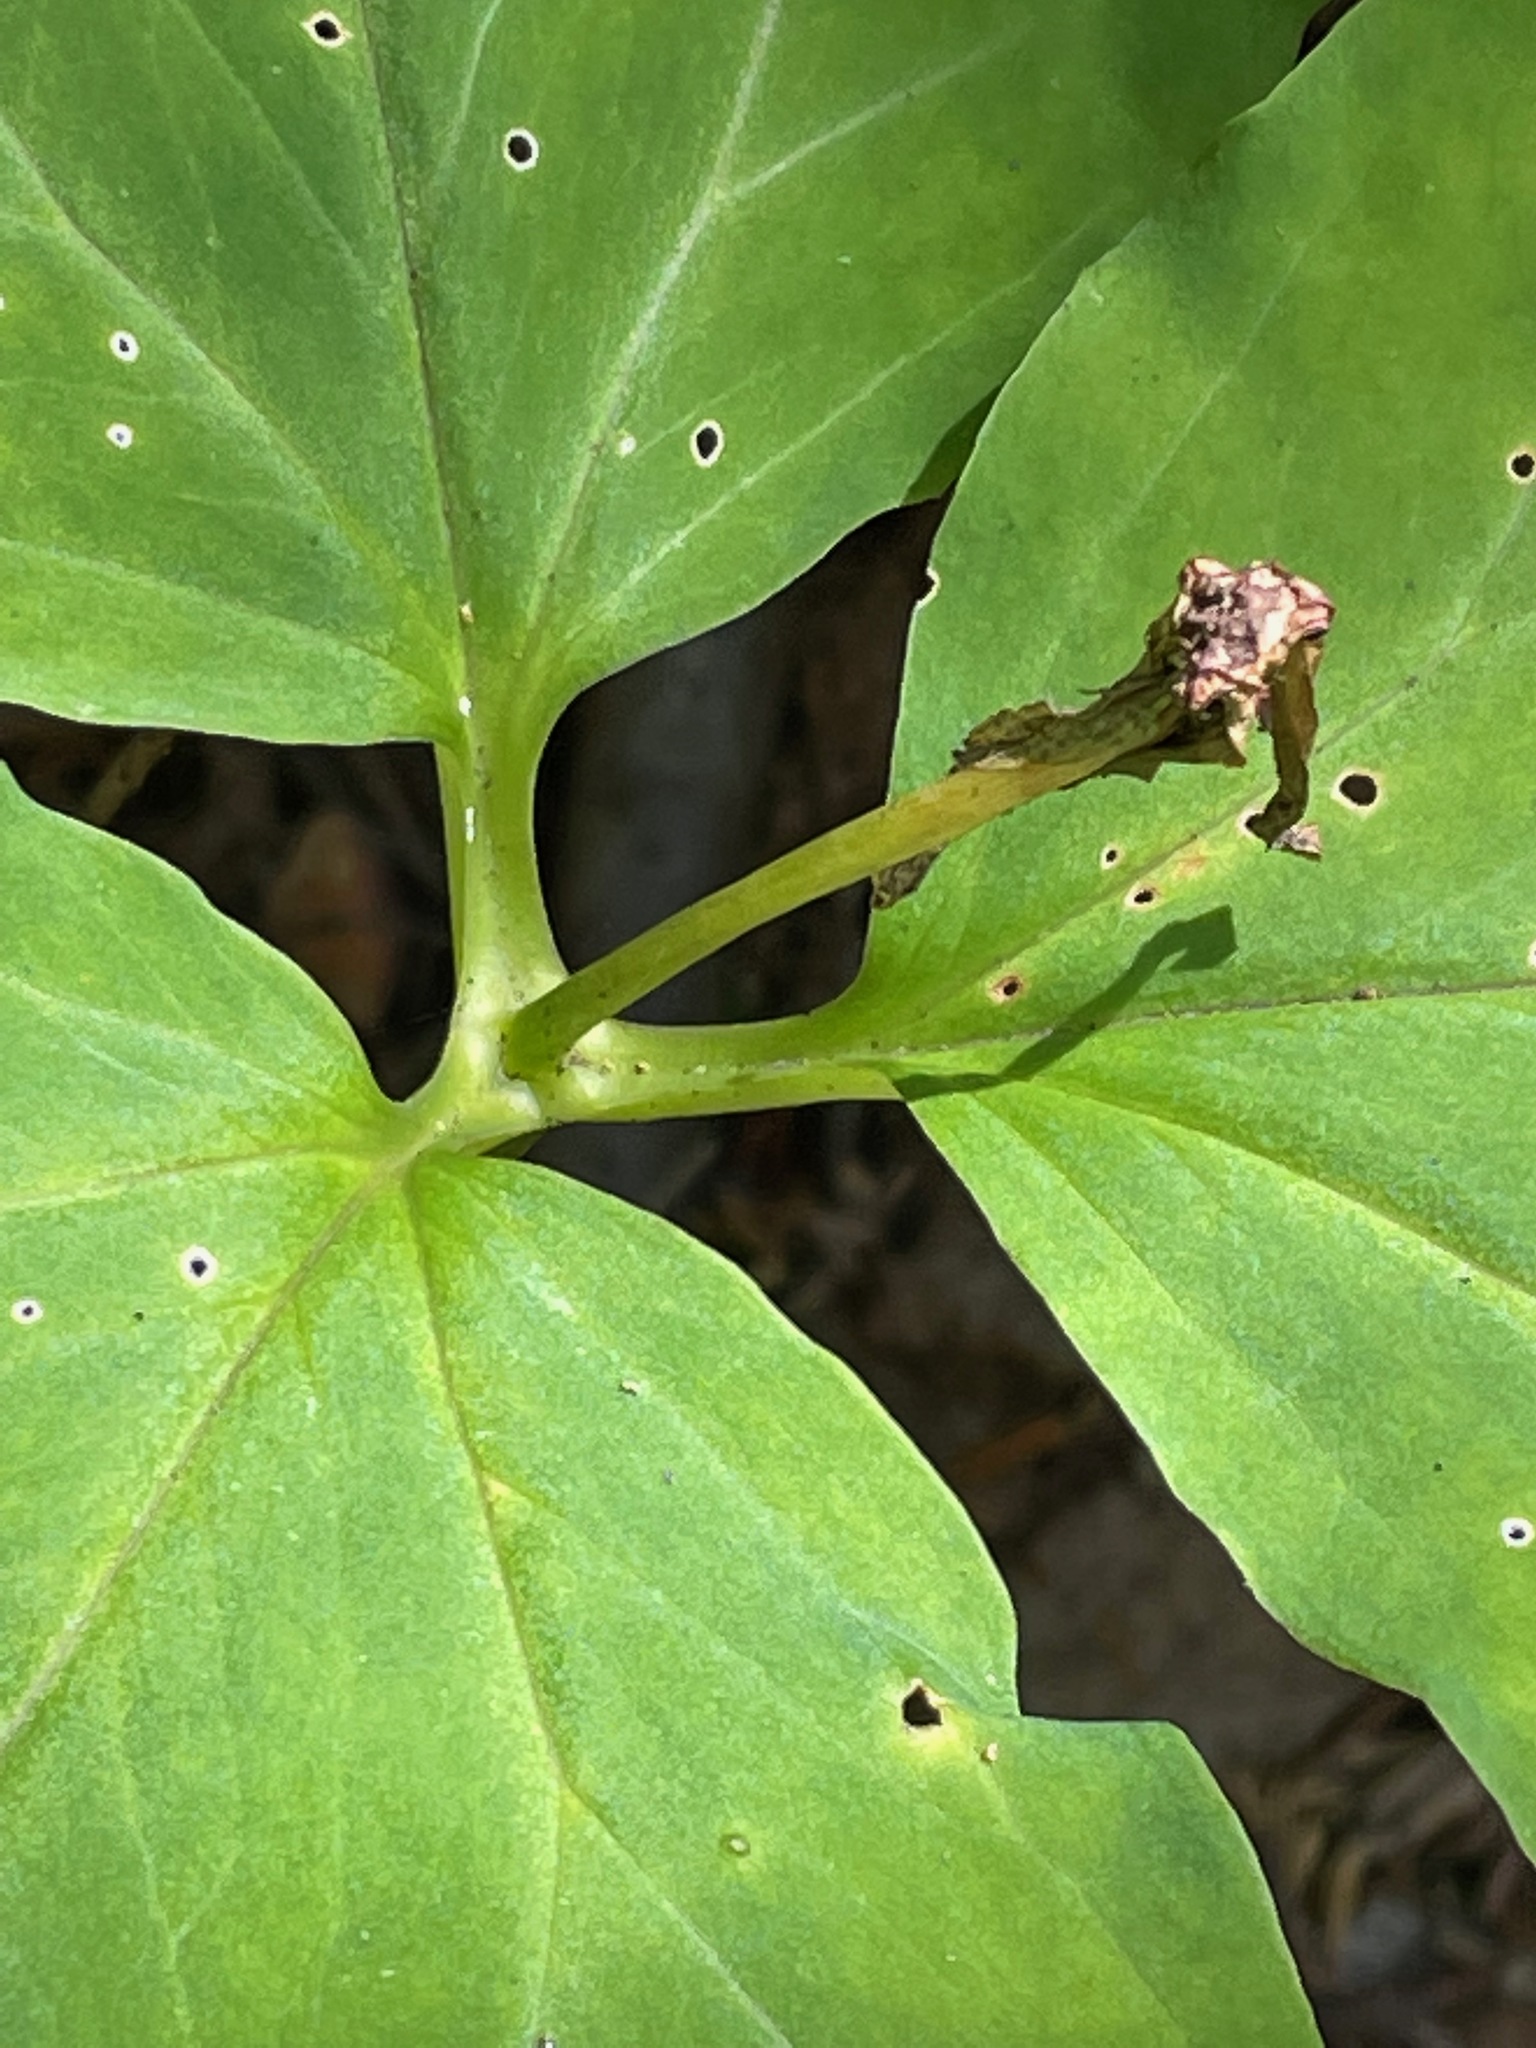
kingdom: Plantae
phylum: Tracheophyta
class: Liliopsida
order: Liliales
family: Melanthiaceae
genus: Trillium
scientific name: Trillium undulatum
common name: Paint trillium
